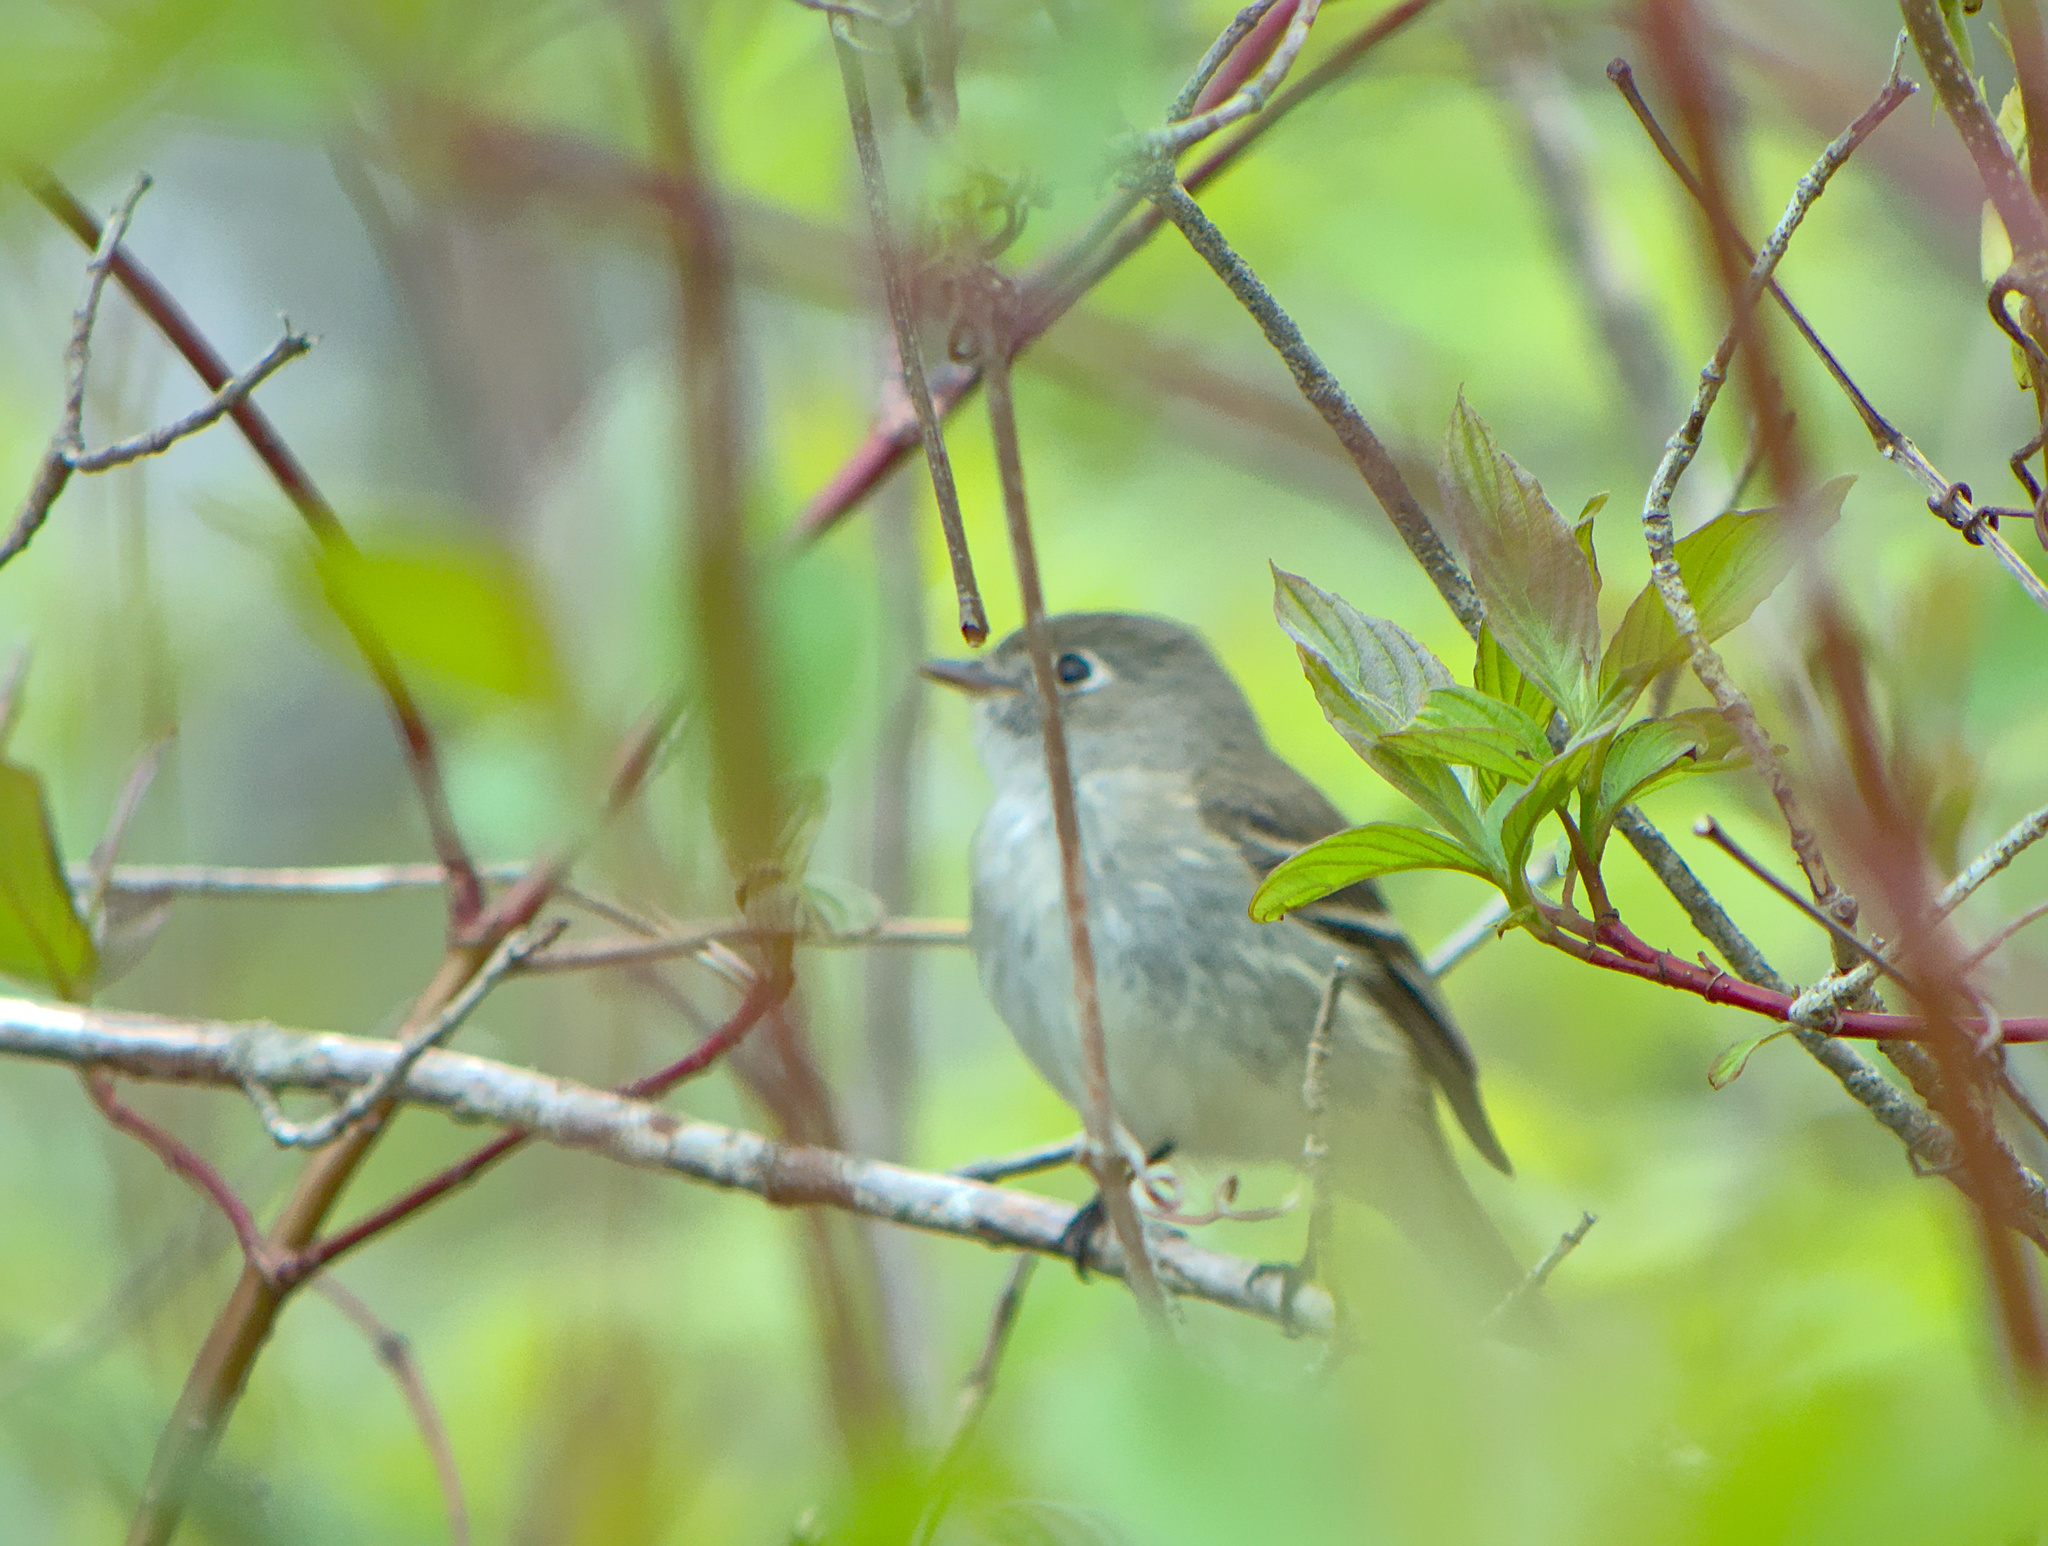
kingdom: Animalia
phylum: Chordata
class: Aves
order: Passeriformes
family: Tyrannidae
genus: Empidonax
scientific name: Empidonax minimus
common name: Least flycatcher
